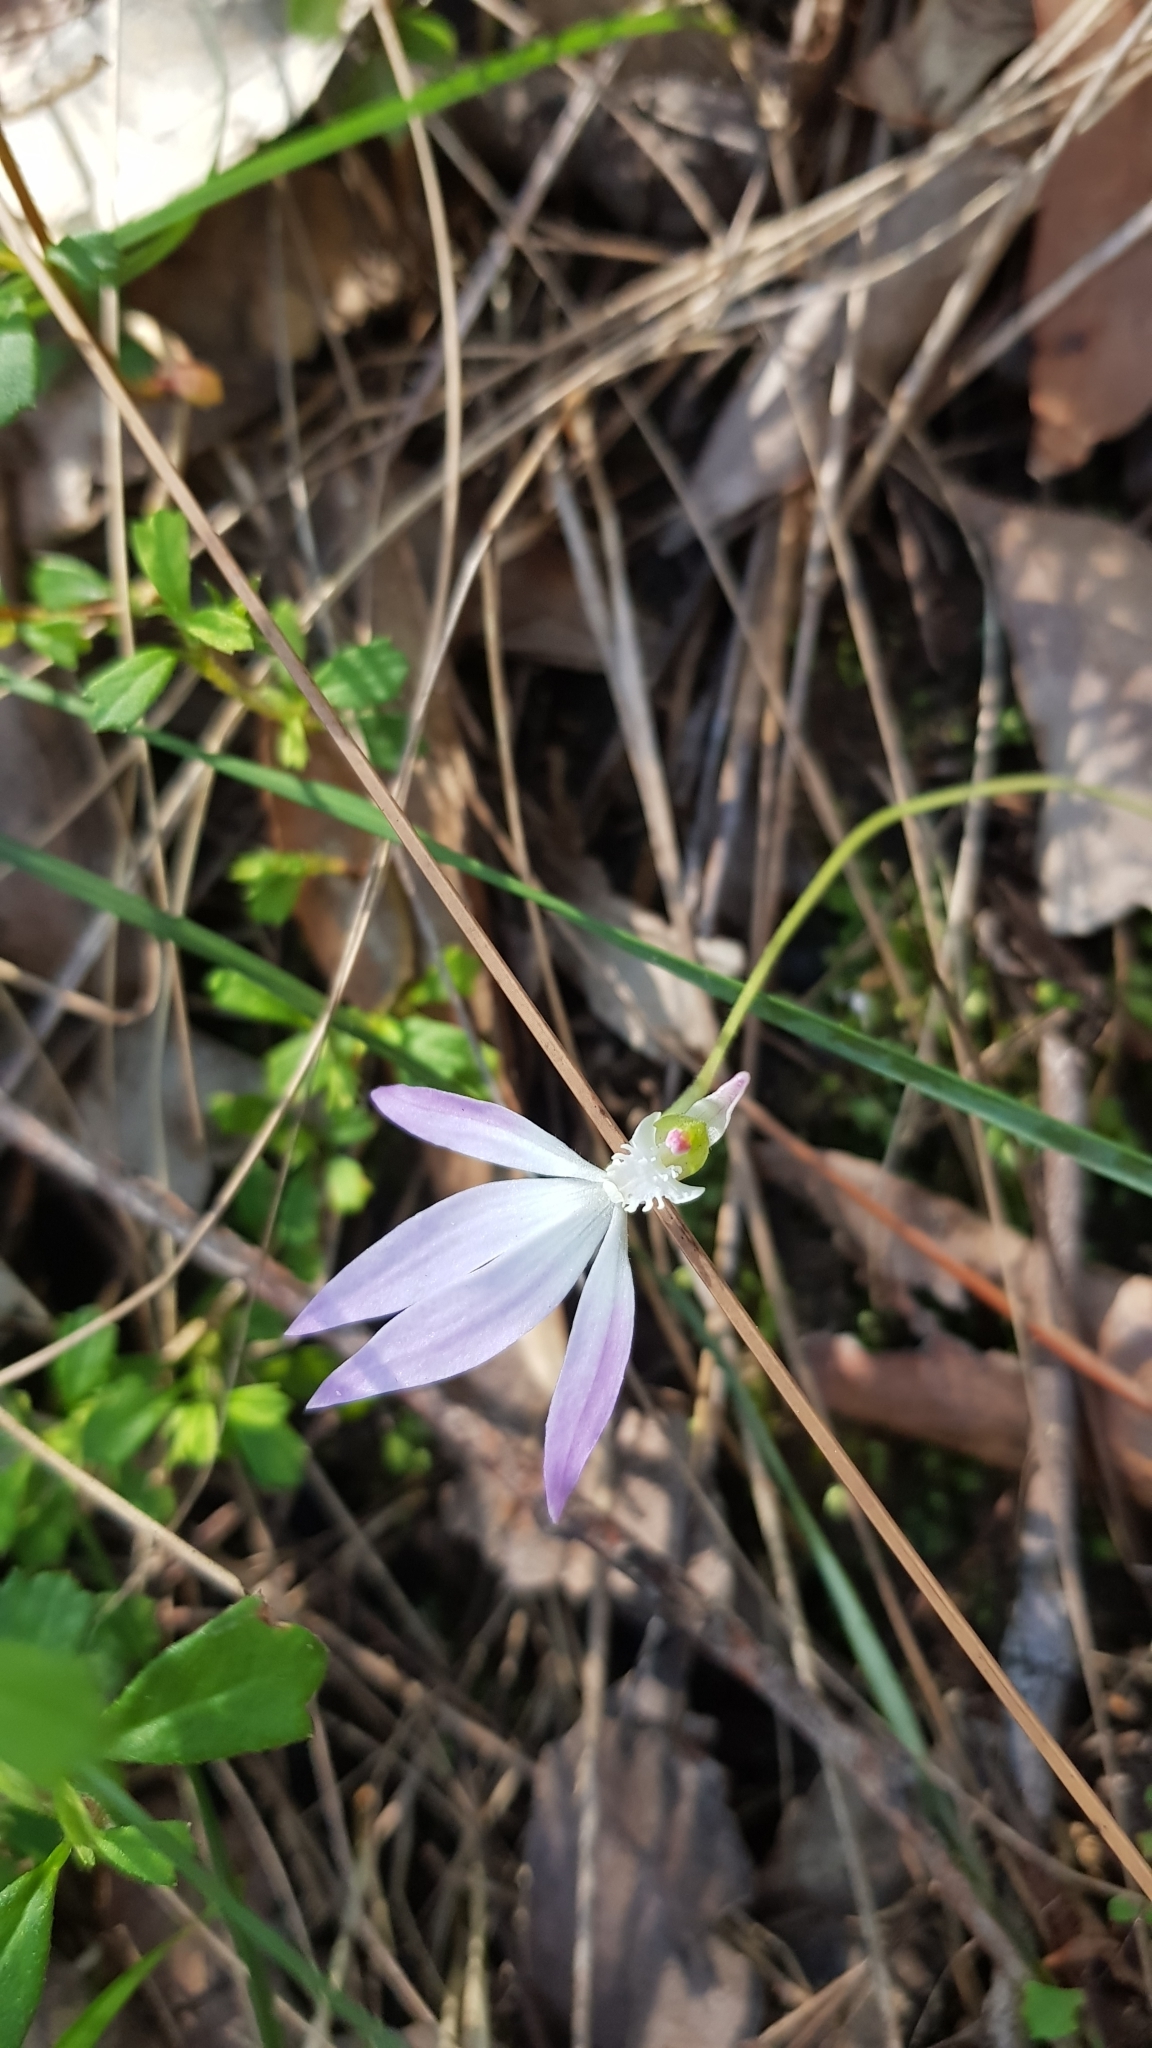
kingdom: Plantae
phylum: Tracheophyta
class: Liliopsida
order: Asparagales
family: Orchidaceae
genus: Caladenia
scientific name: Caladenia catenata
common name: White caladenia
